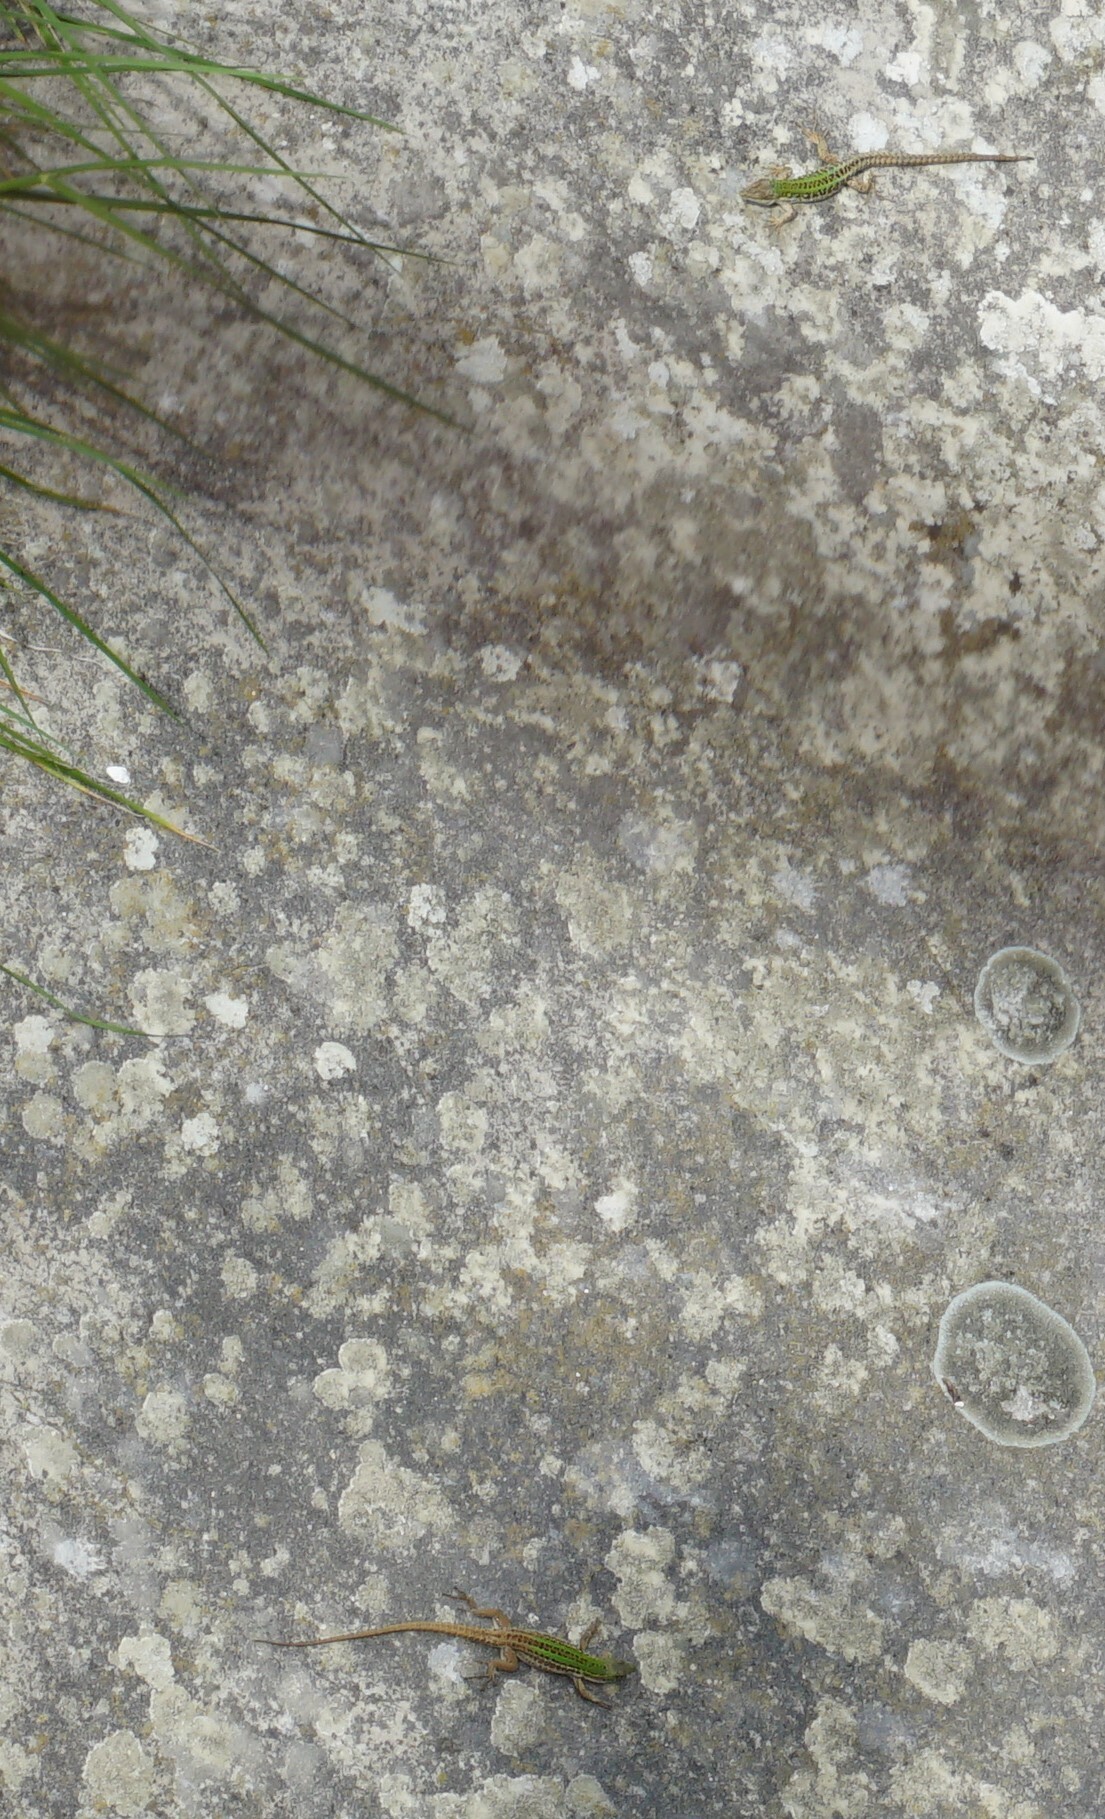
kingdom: Animalia
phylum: Chordata
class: Squamata
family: Lacertidae
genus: Podarcis
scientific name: Podarcis siculus
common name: Italian wall lizard
